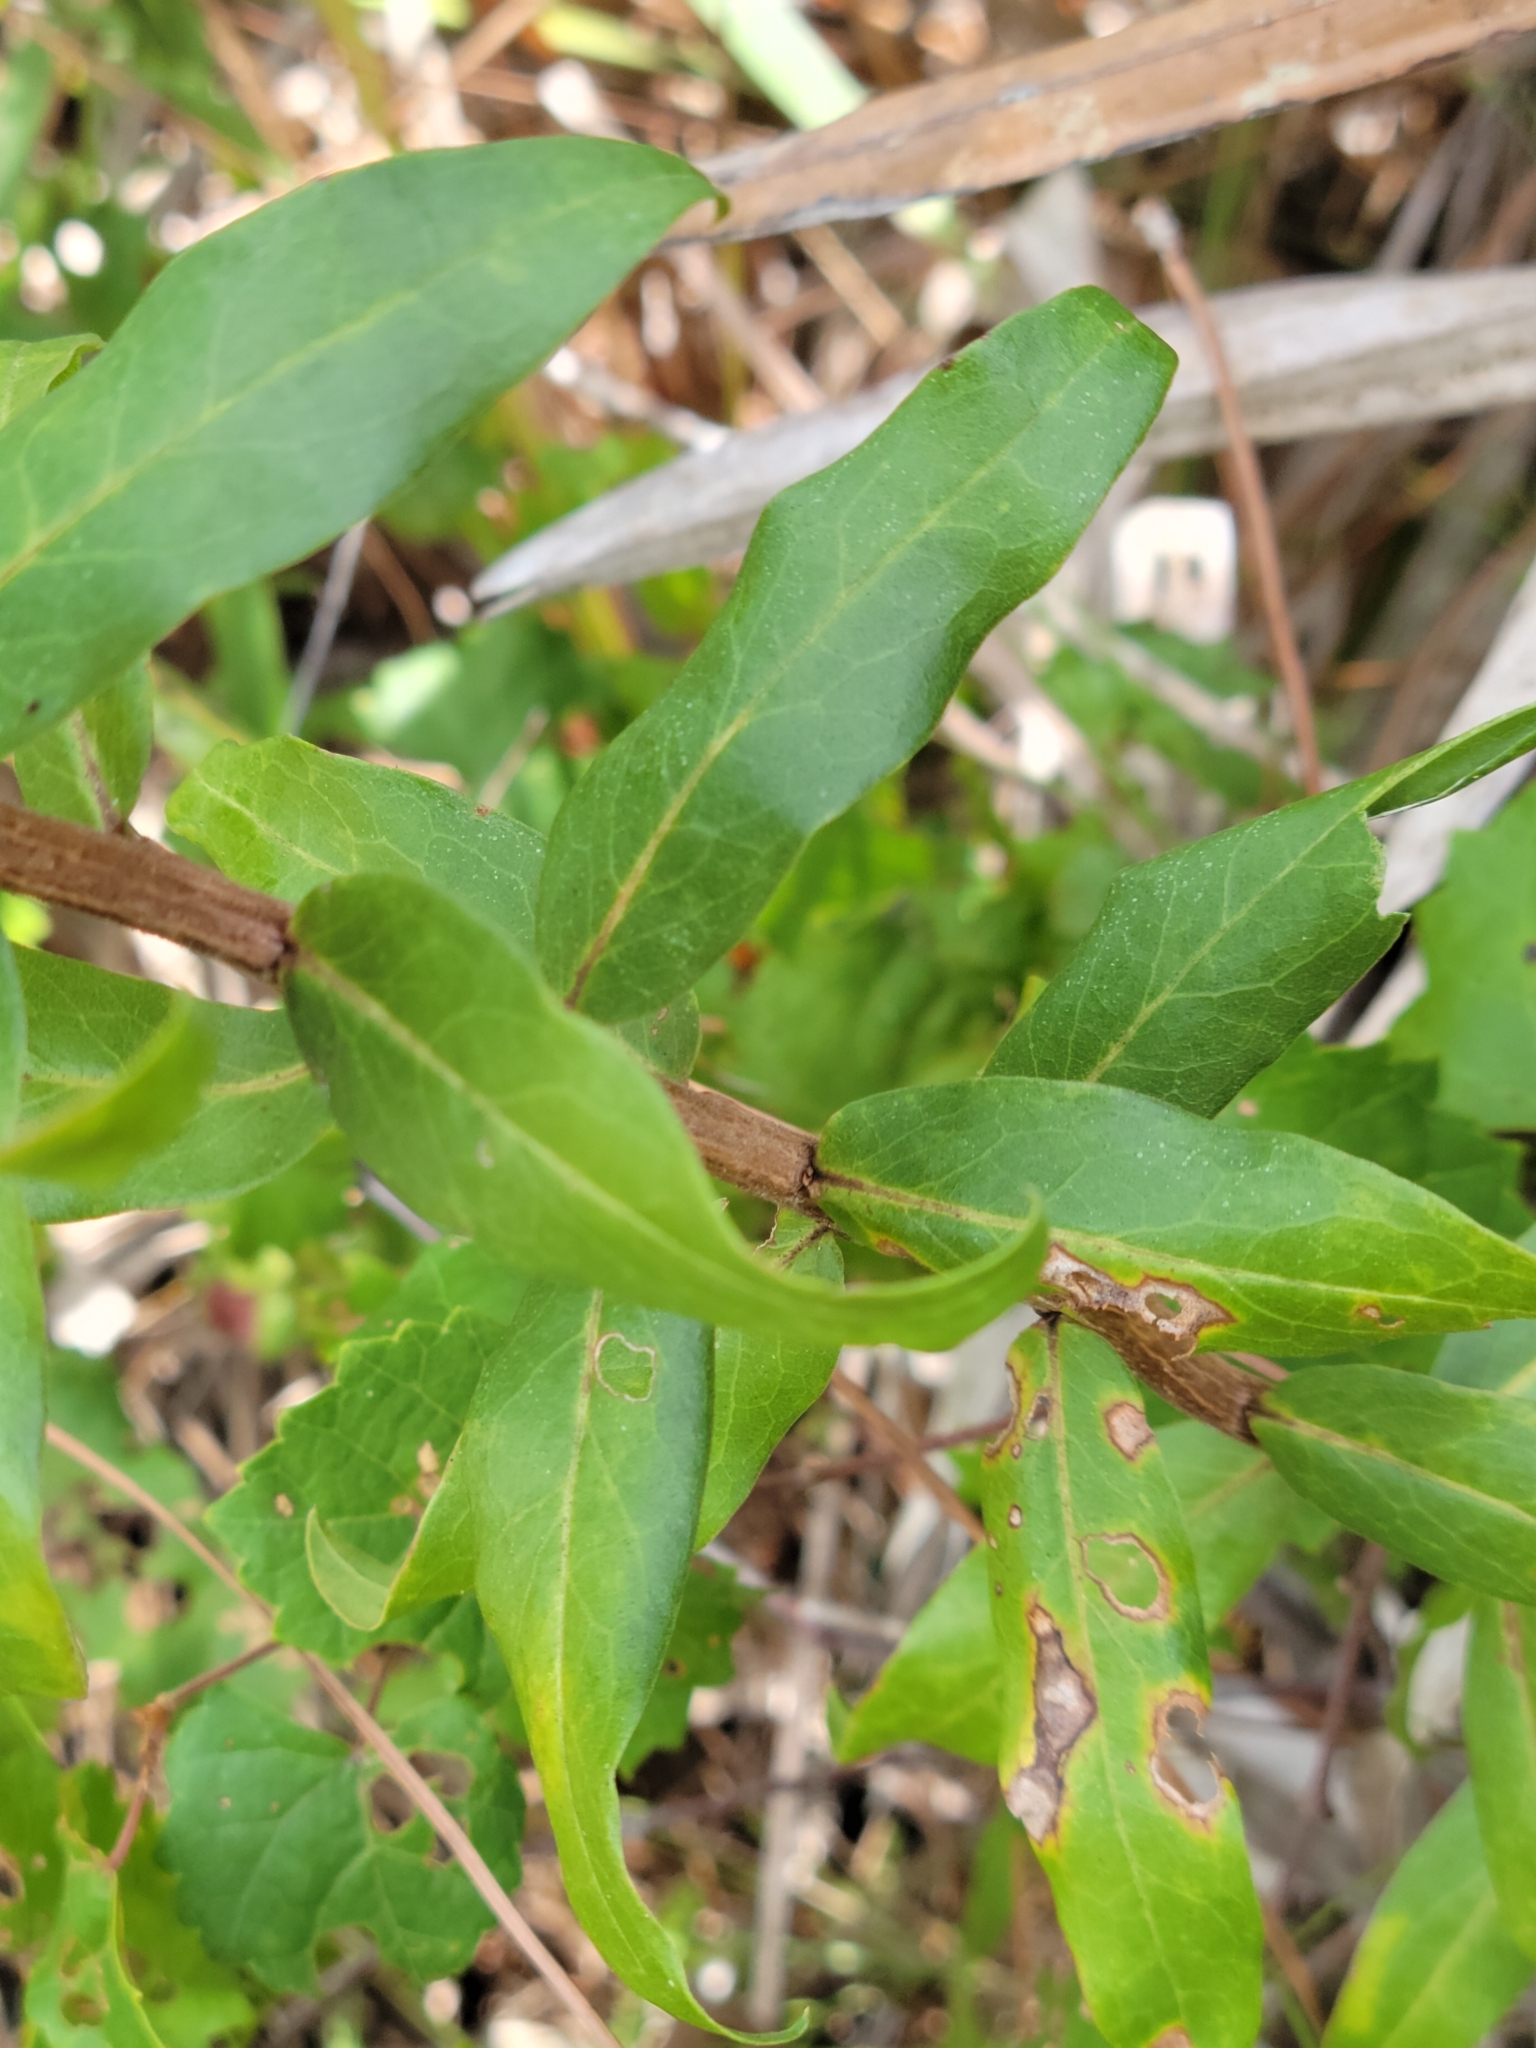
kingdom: Plantae
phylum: Tracheophyta
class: Magnoliopsida
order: Asterales
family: Asteraceae
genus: Solidago
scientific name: Solidago chapmanii
